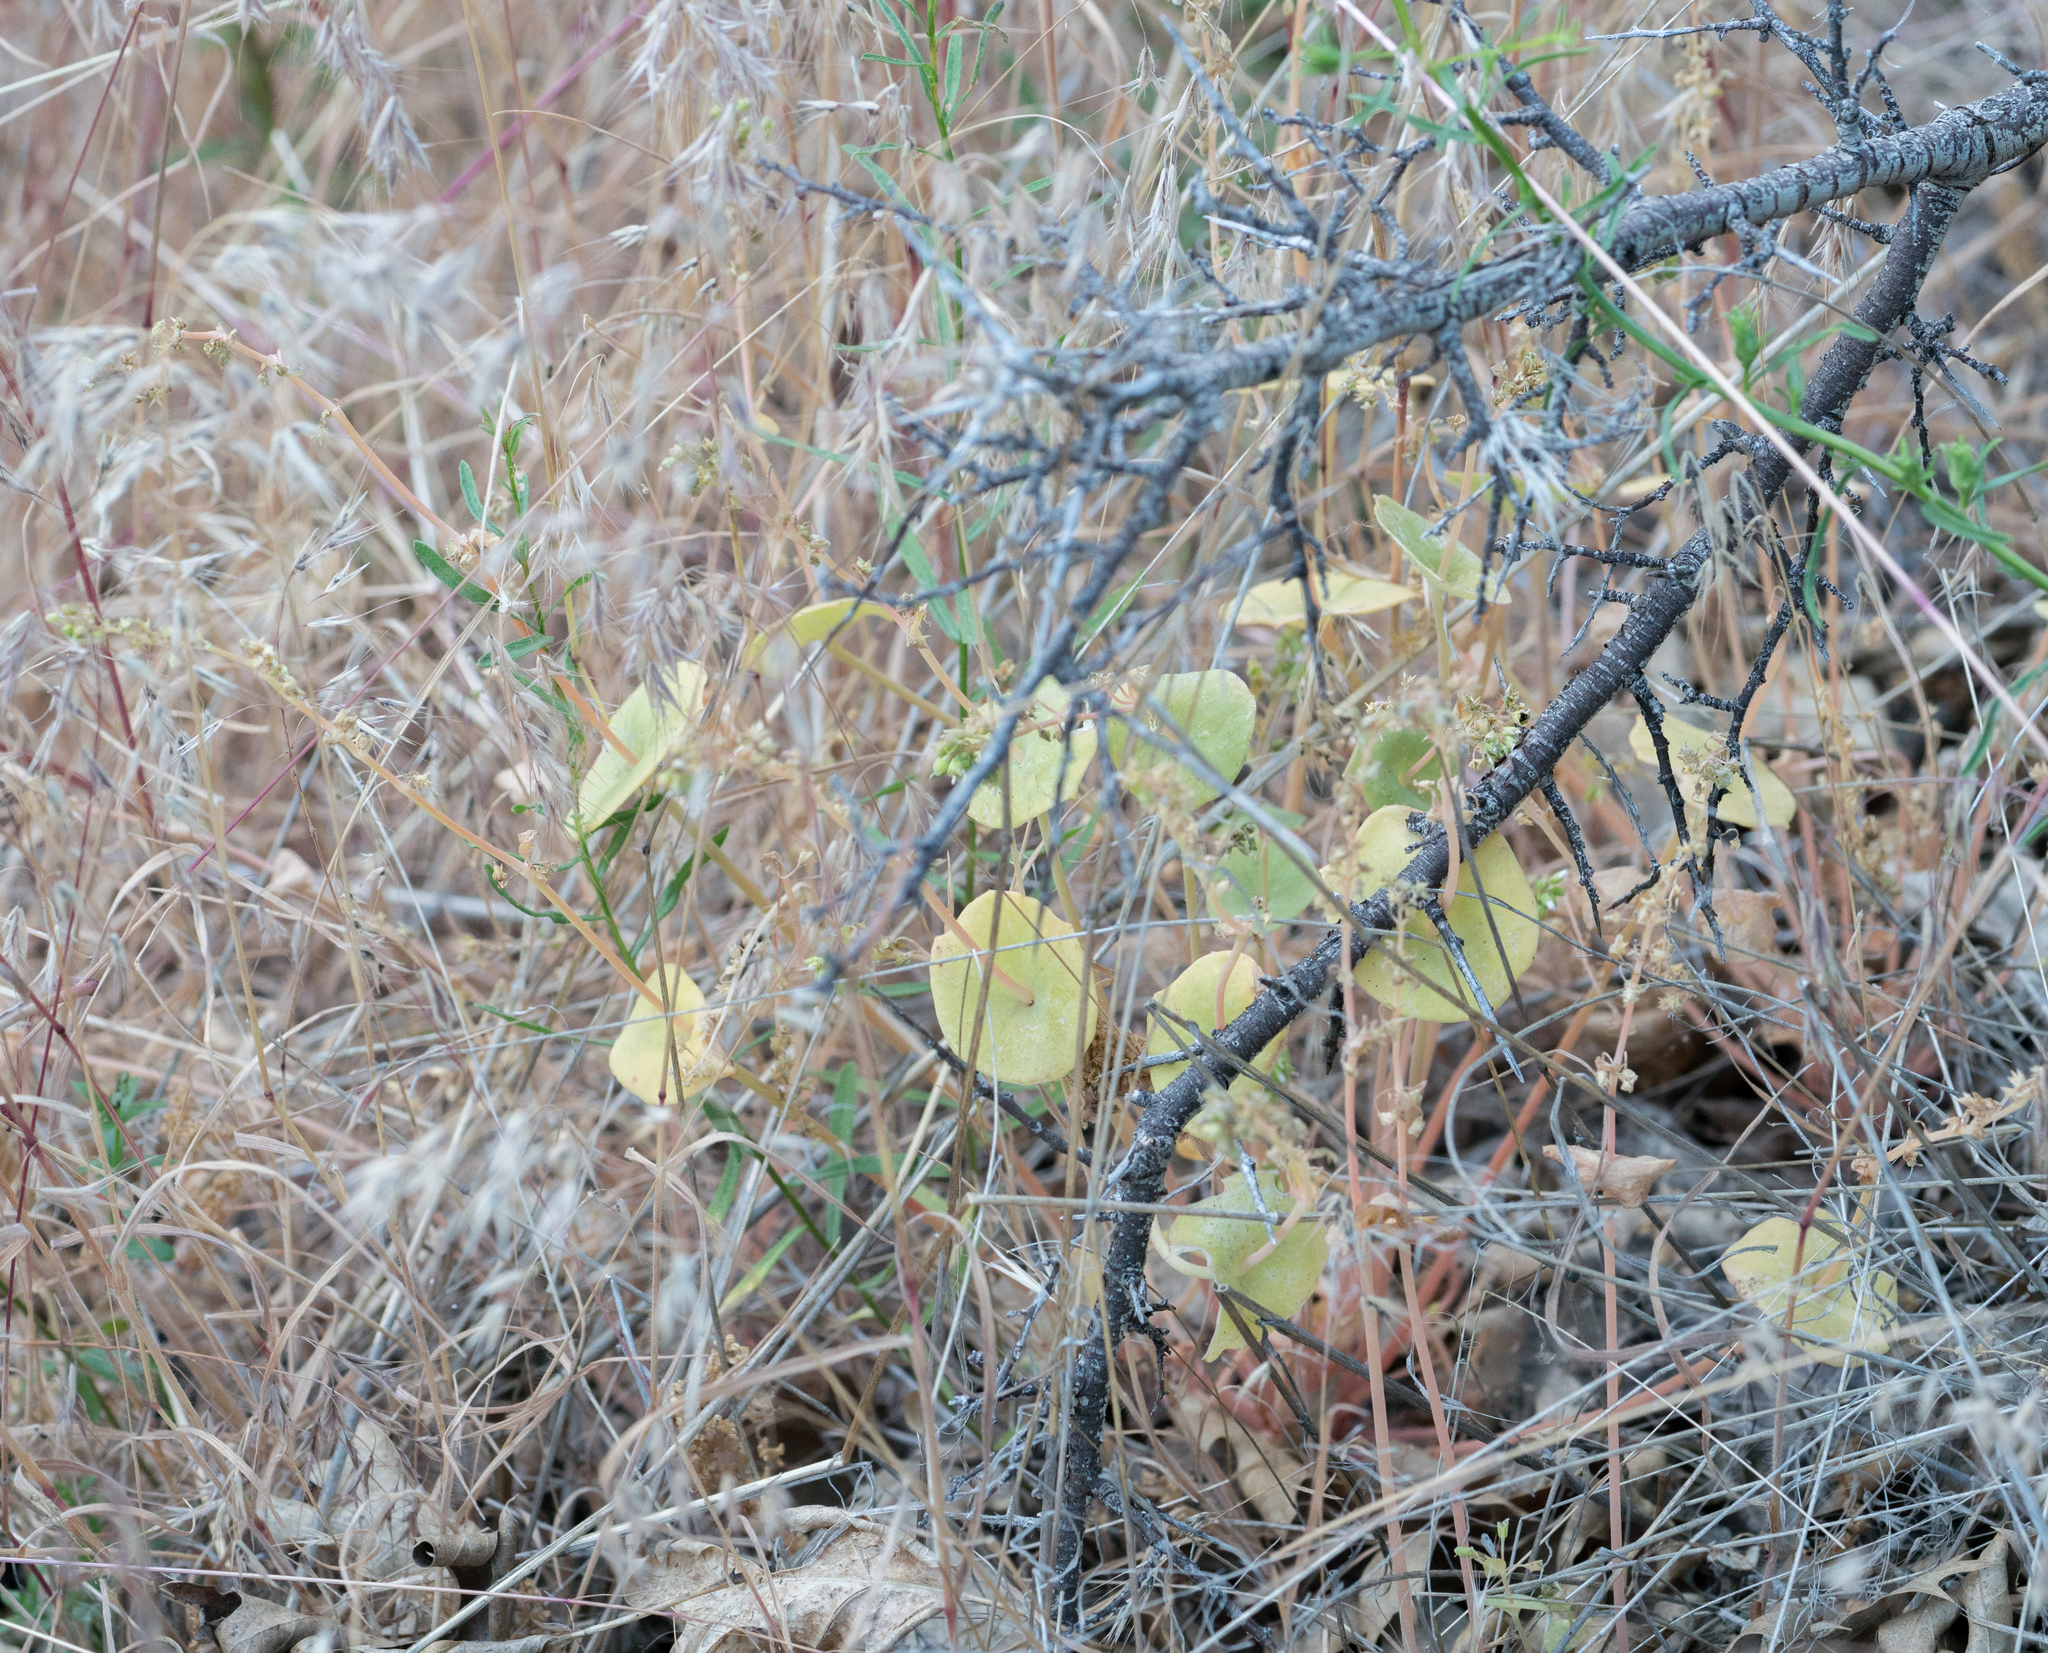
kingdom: Plantae
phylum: Tracheophyta
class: Magnoliopsida
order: Caryophyllales
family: Montiaceae
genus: Claytonia
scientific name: Claytonia perfoliata
